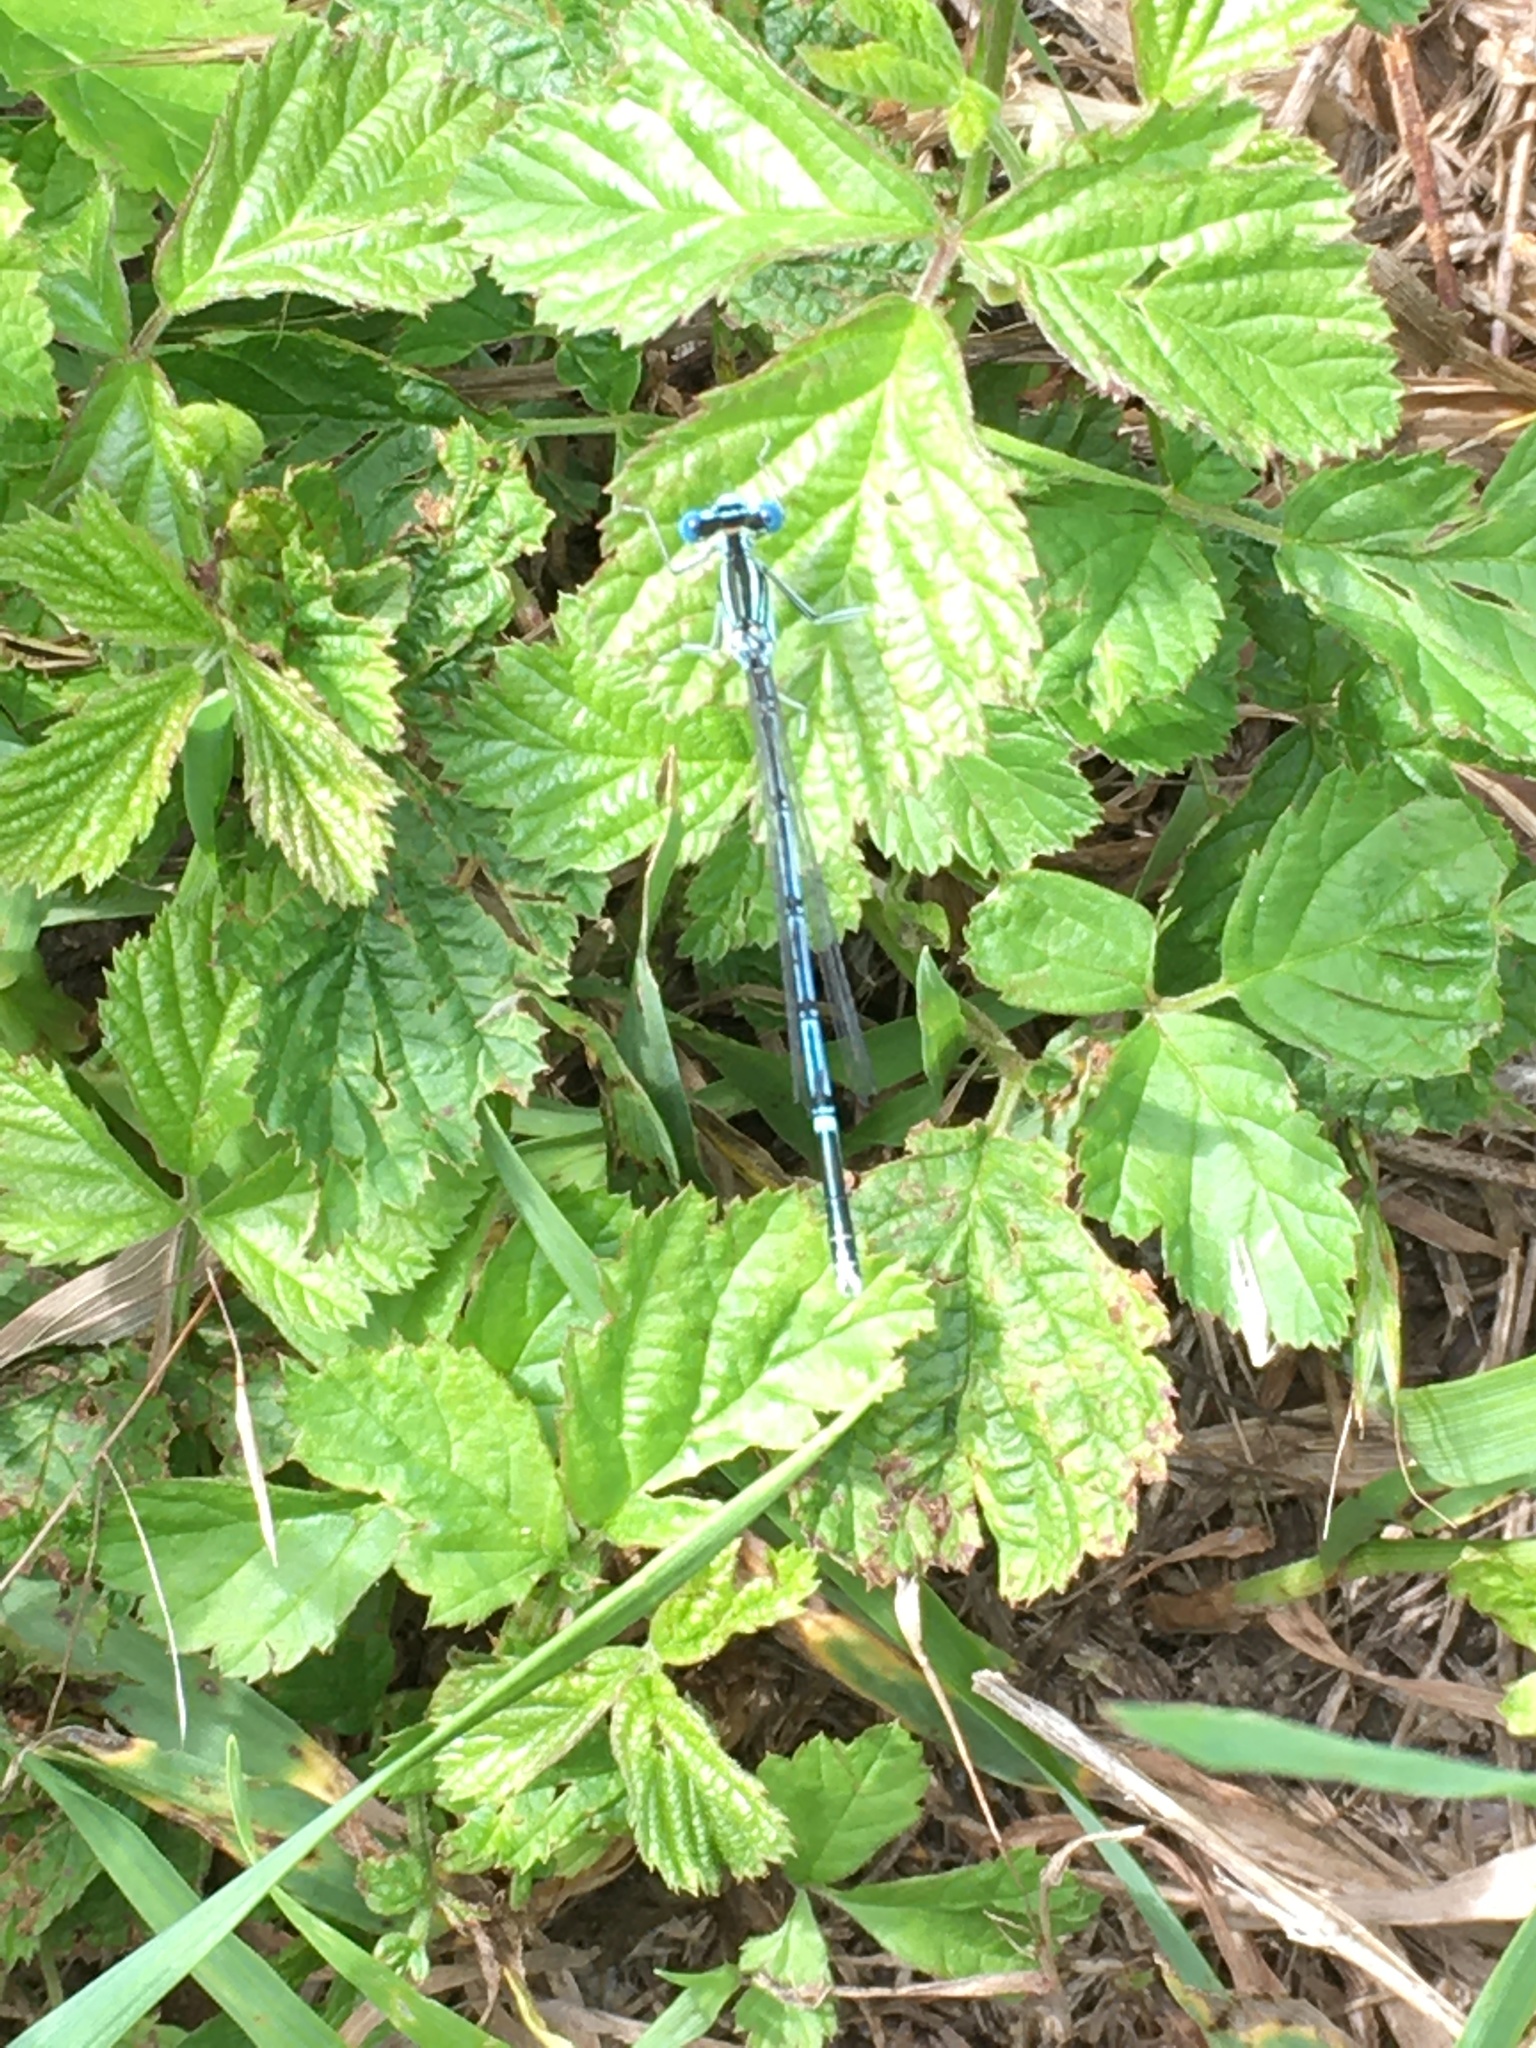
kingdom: Animalia
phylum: Arthropoda
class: Insecta
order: Odonata
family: Platycnemididae
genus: Platycnemis
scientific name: Platycnemis pennipes
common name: White-legged damselfly
